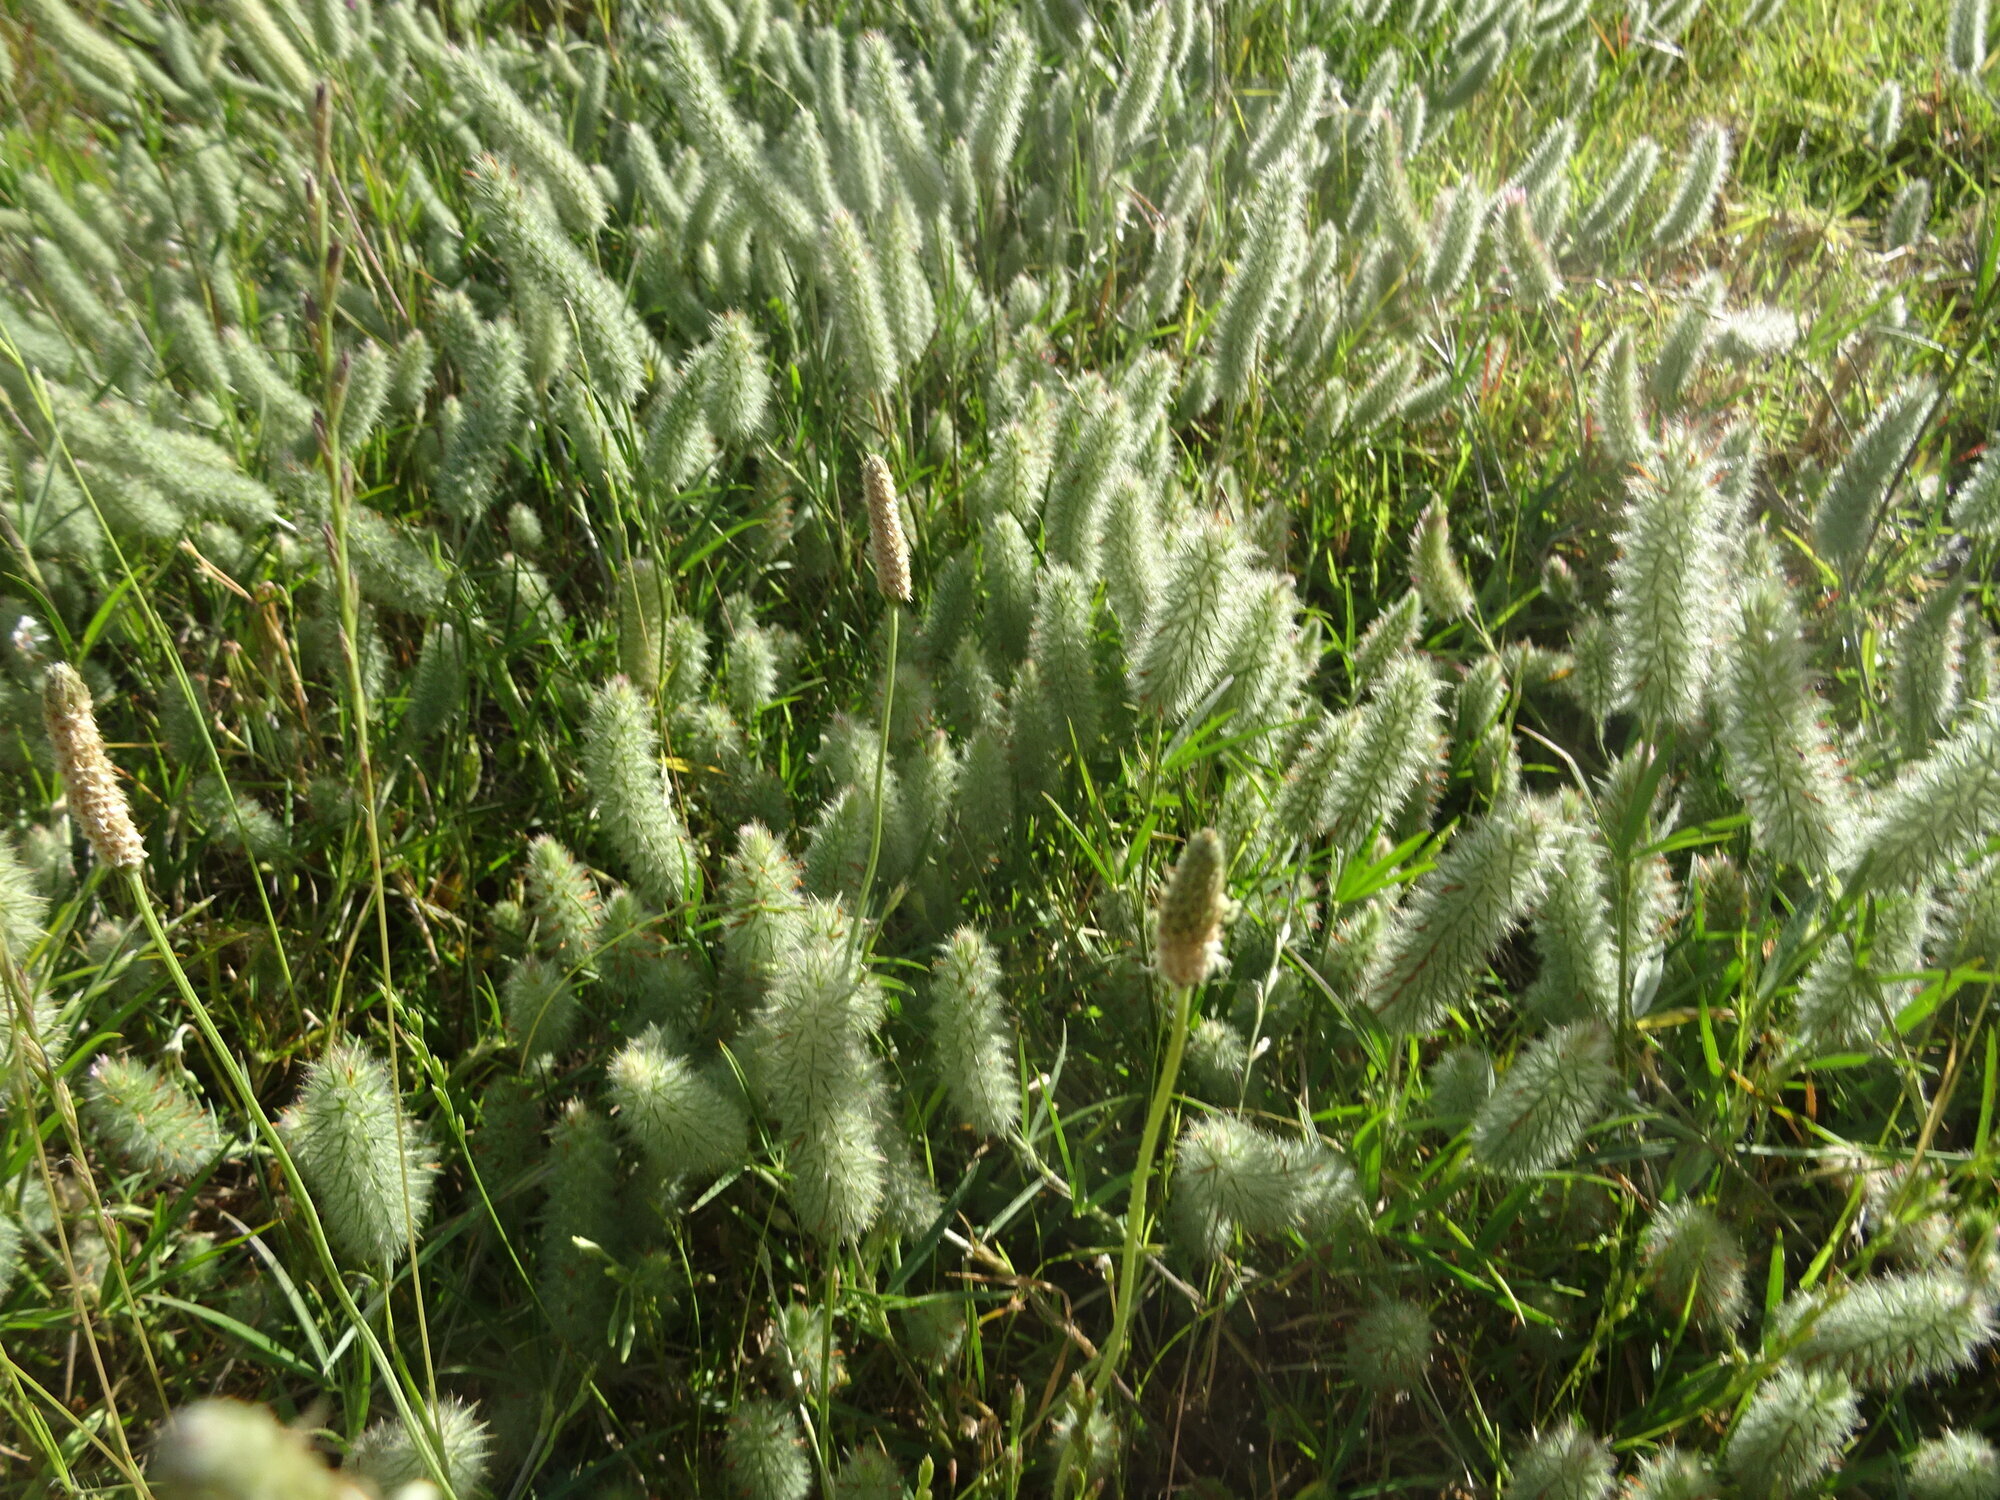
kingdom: Plantae
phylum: Tracheophyta
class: Magnoliopsida
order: Fabales
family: Fabaceae
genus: Trifolium
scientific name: Trifolium angustifolium
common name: Narrow clover
